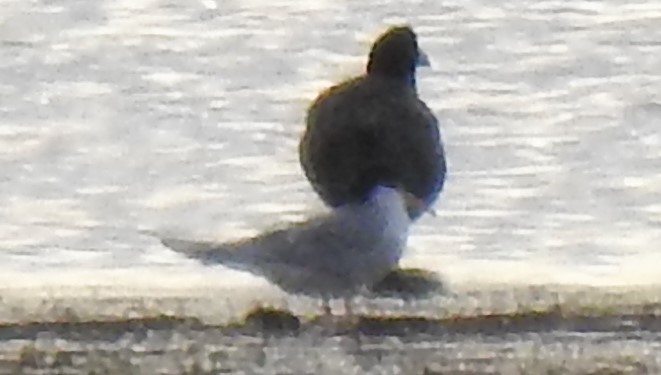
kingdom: Animalia
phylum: Chordata
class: Aves
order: Charadriiformes
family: Laridae
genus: Sternula
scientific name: Sternula antillarum
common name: Least tern
